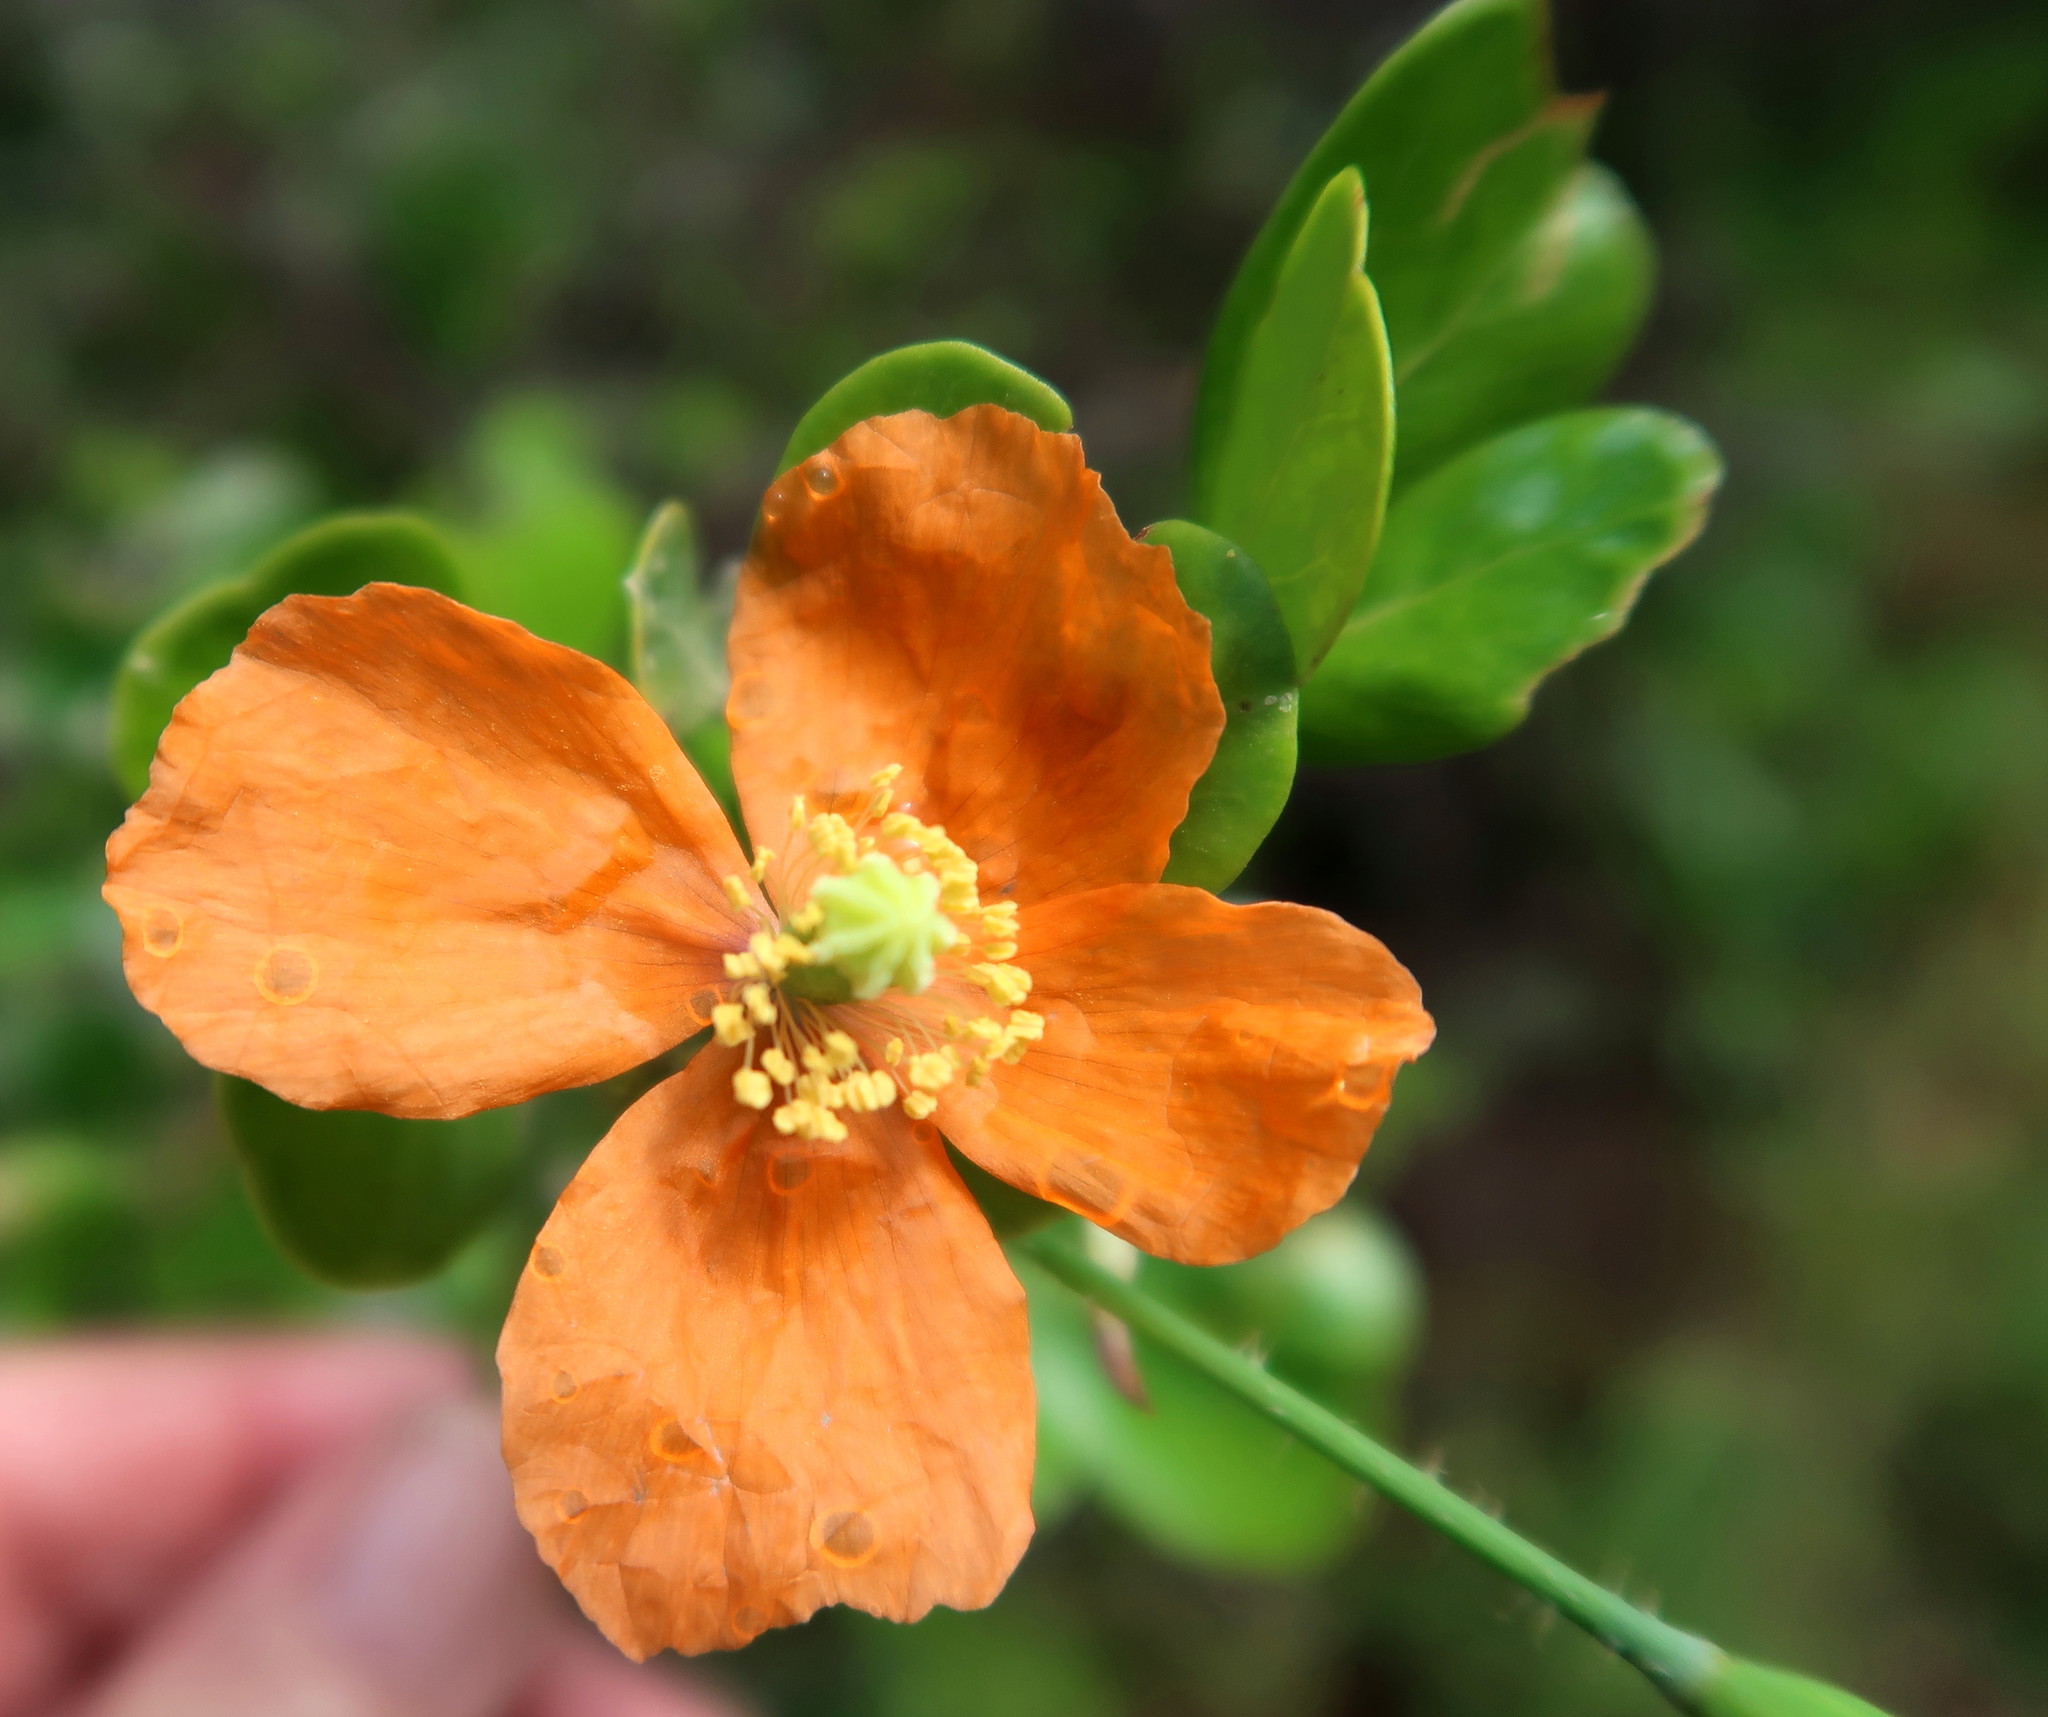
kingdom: Plantae
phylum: Tracheophyta
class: Magnoliopsida
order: Ranunculales
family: Papaveraceae
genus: Papaver
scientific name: Papaver aculeatum
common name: Bristle poppy
